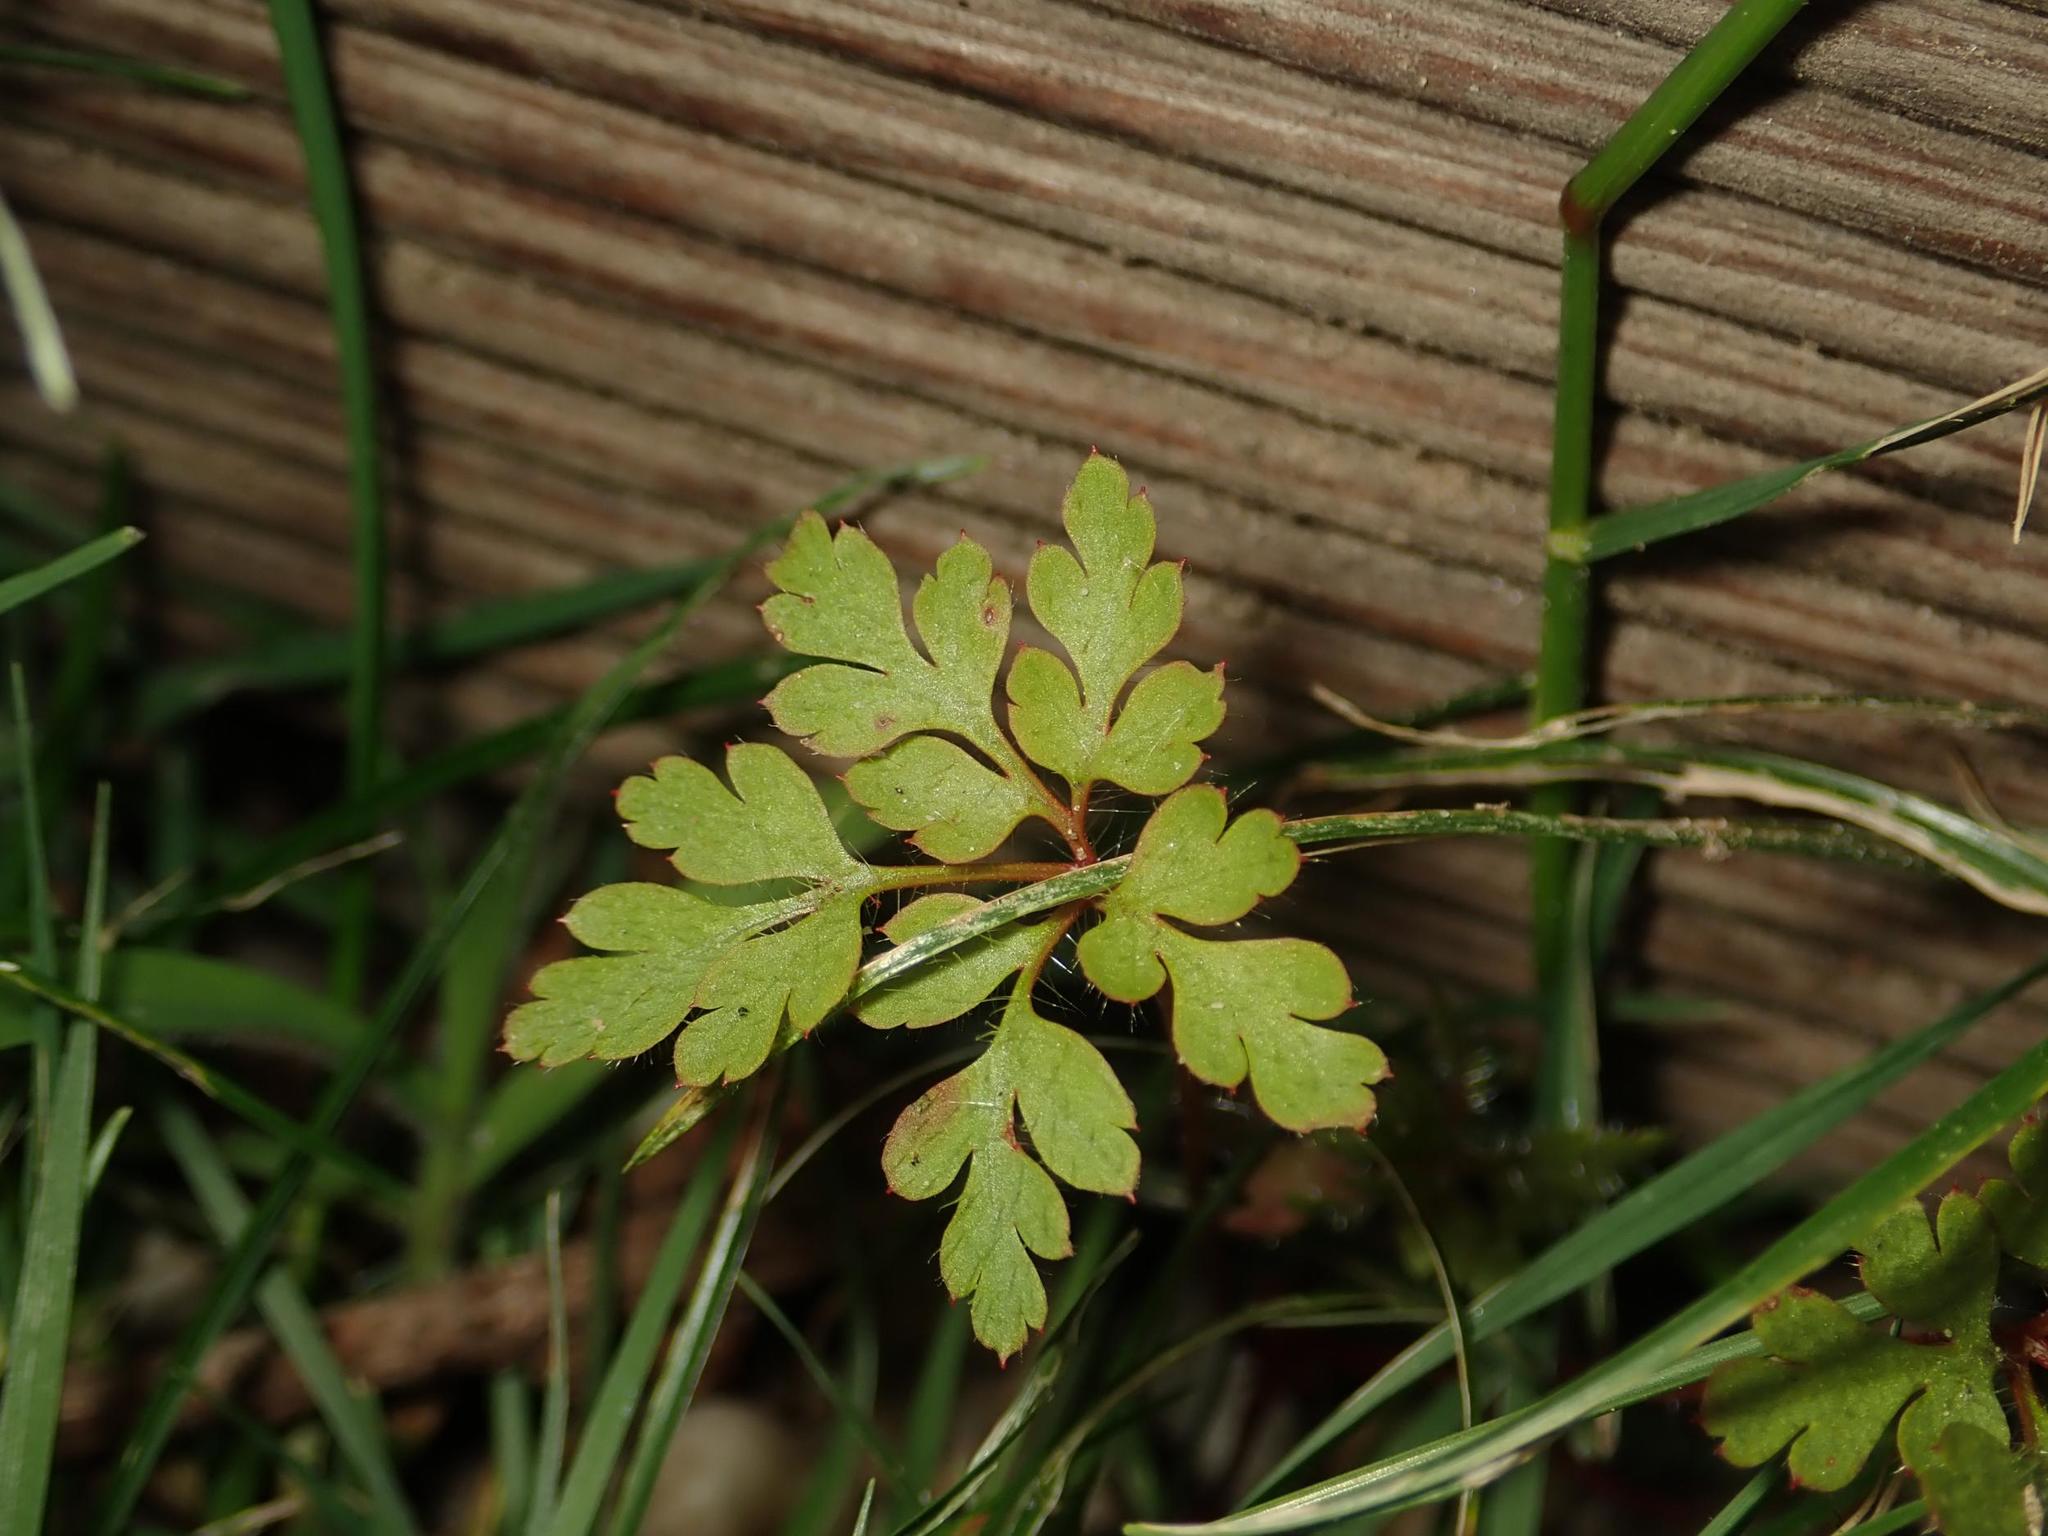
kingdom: Plantae
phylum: Tracheophyta
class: Magnoliopsida
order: Geraniales
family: Geraniaceae
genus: Geranium
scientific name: Geranium robertianum
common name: Herb-robert
